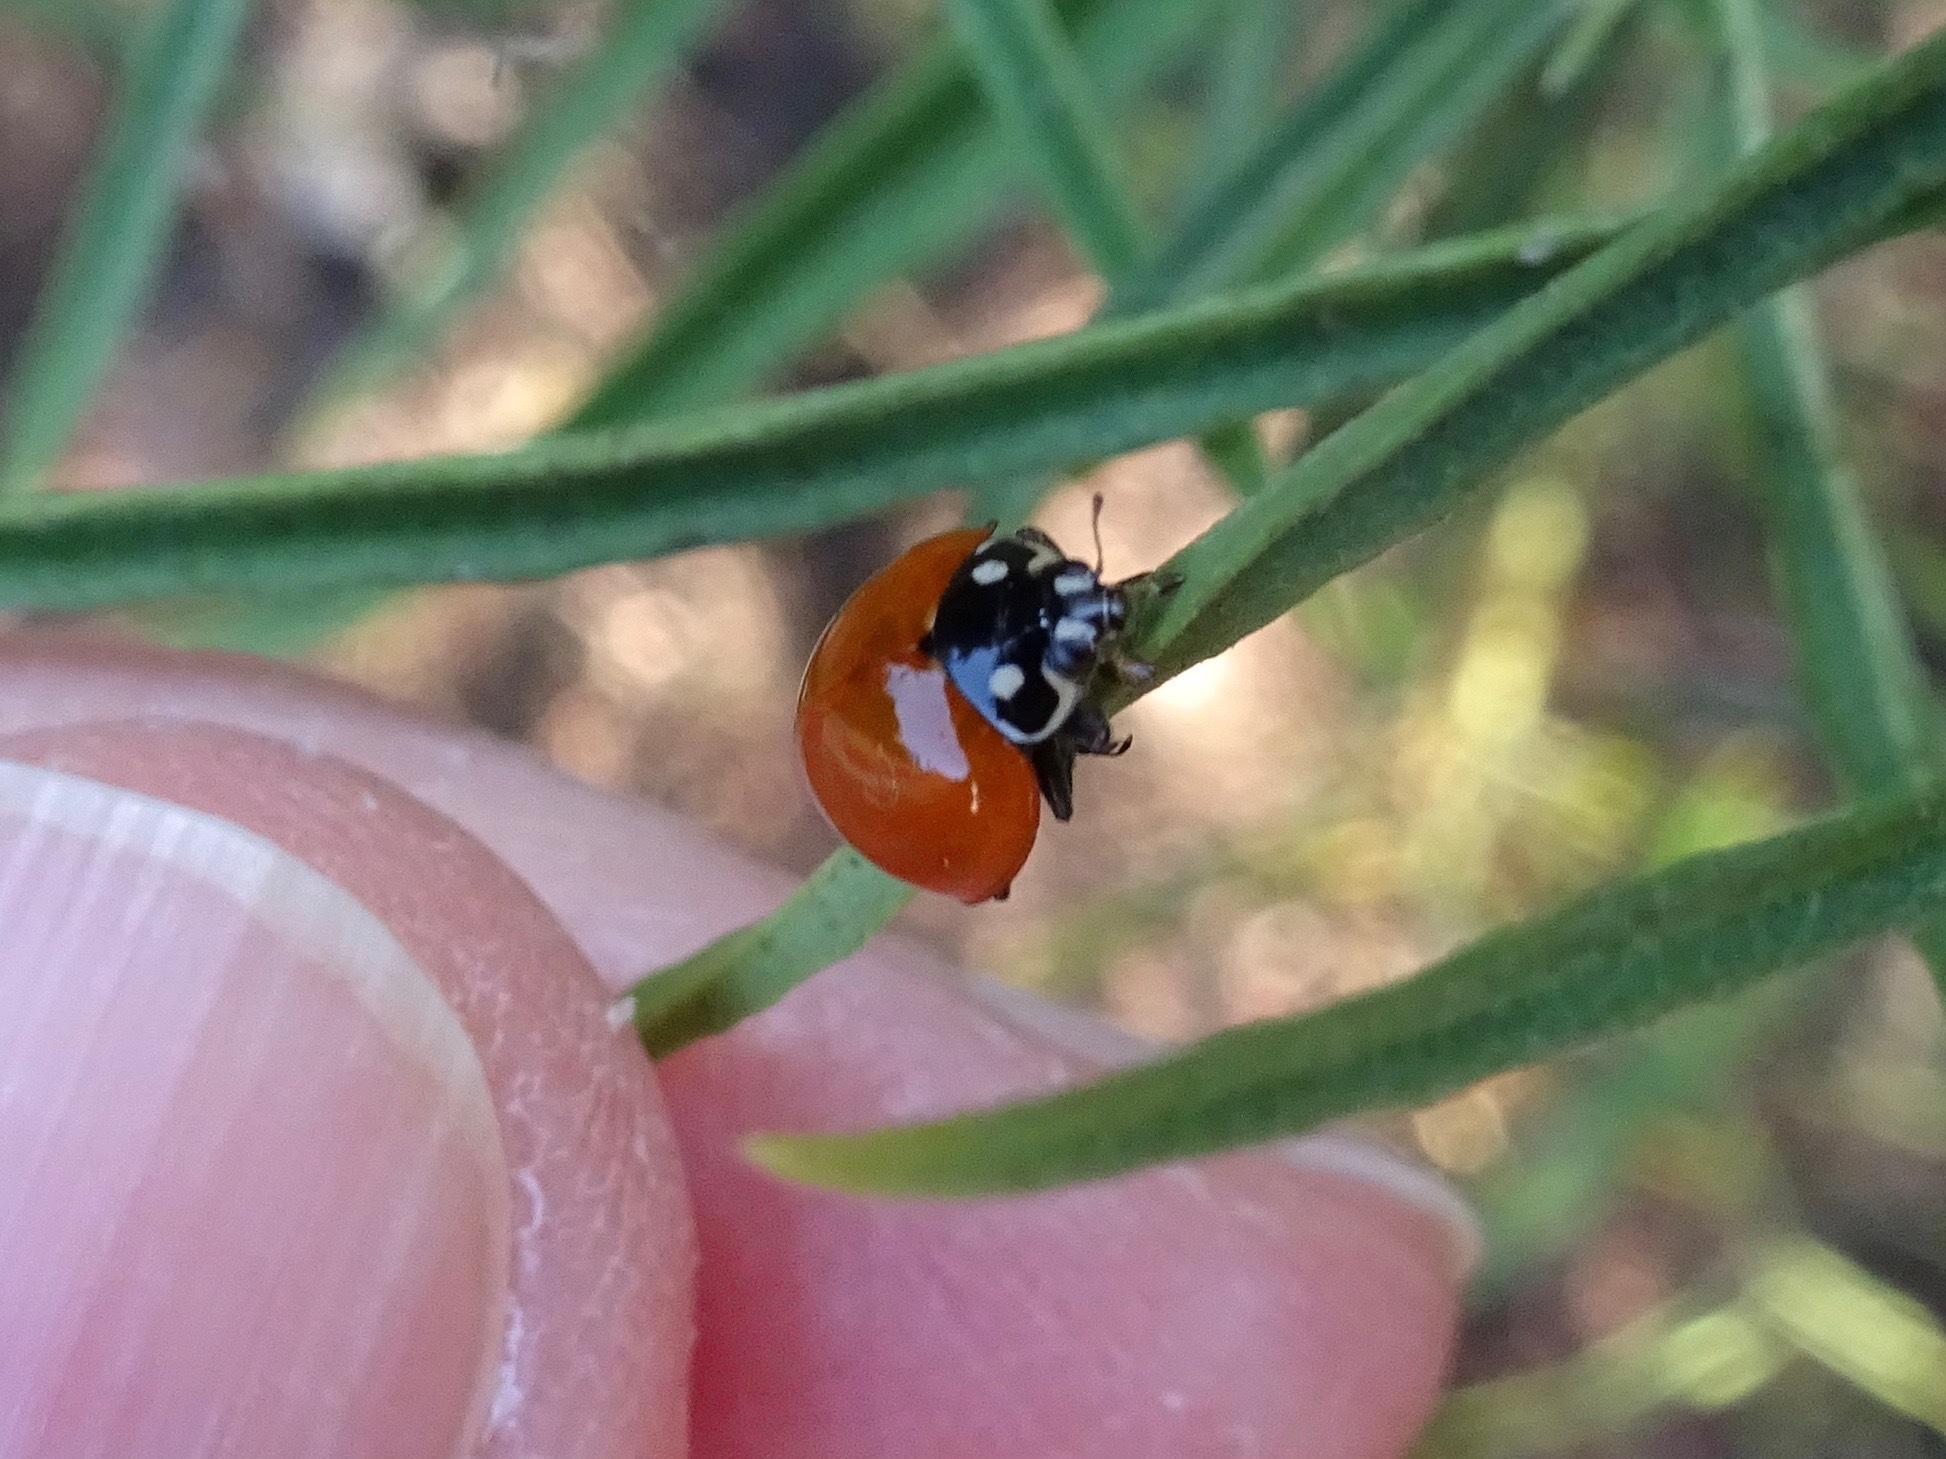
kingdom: Animalia
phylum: Arthropoda
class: Insecta
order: Coleoptera
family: Coccinellidae
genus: Cycloneda
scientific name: Cycloneda sanguinea
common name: Ladybird beetle
